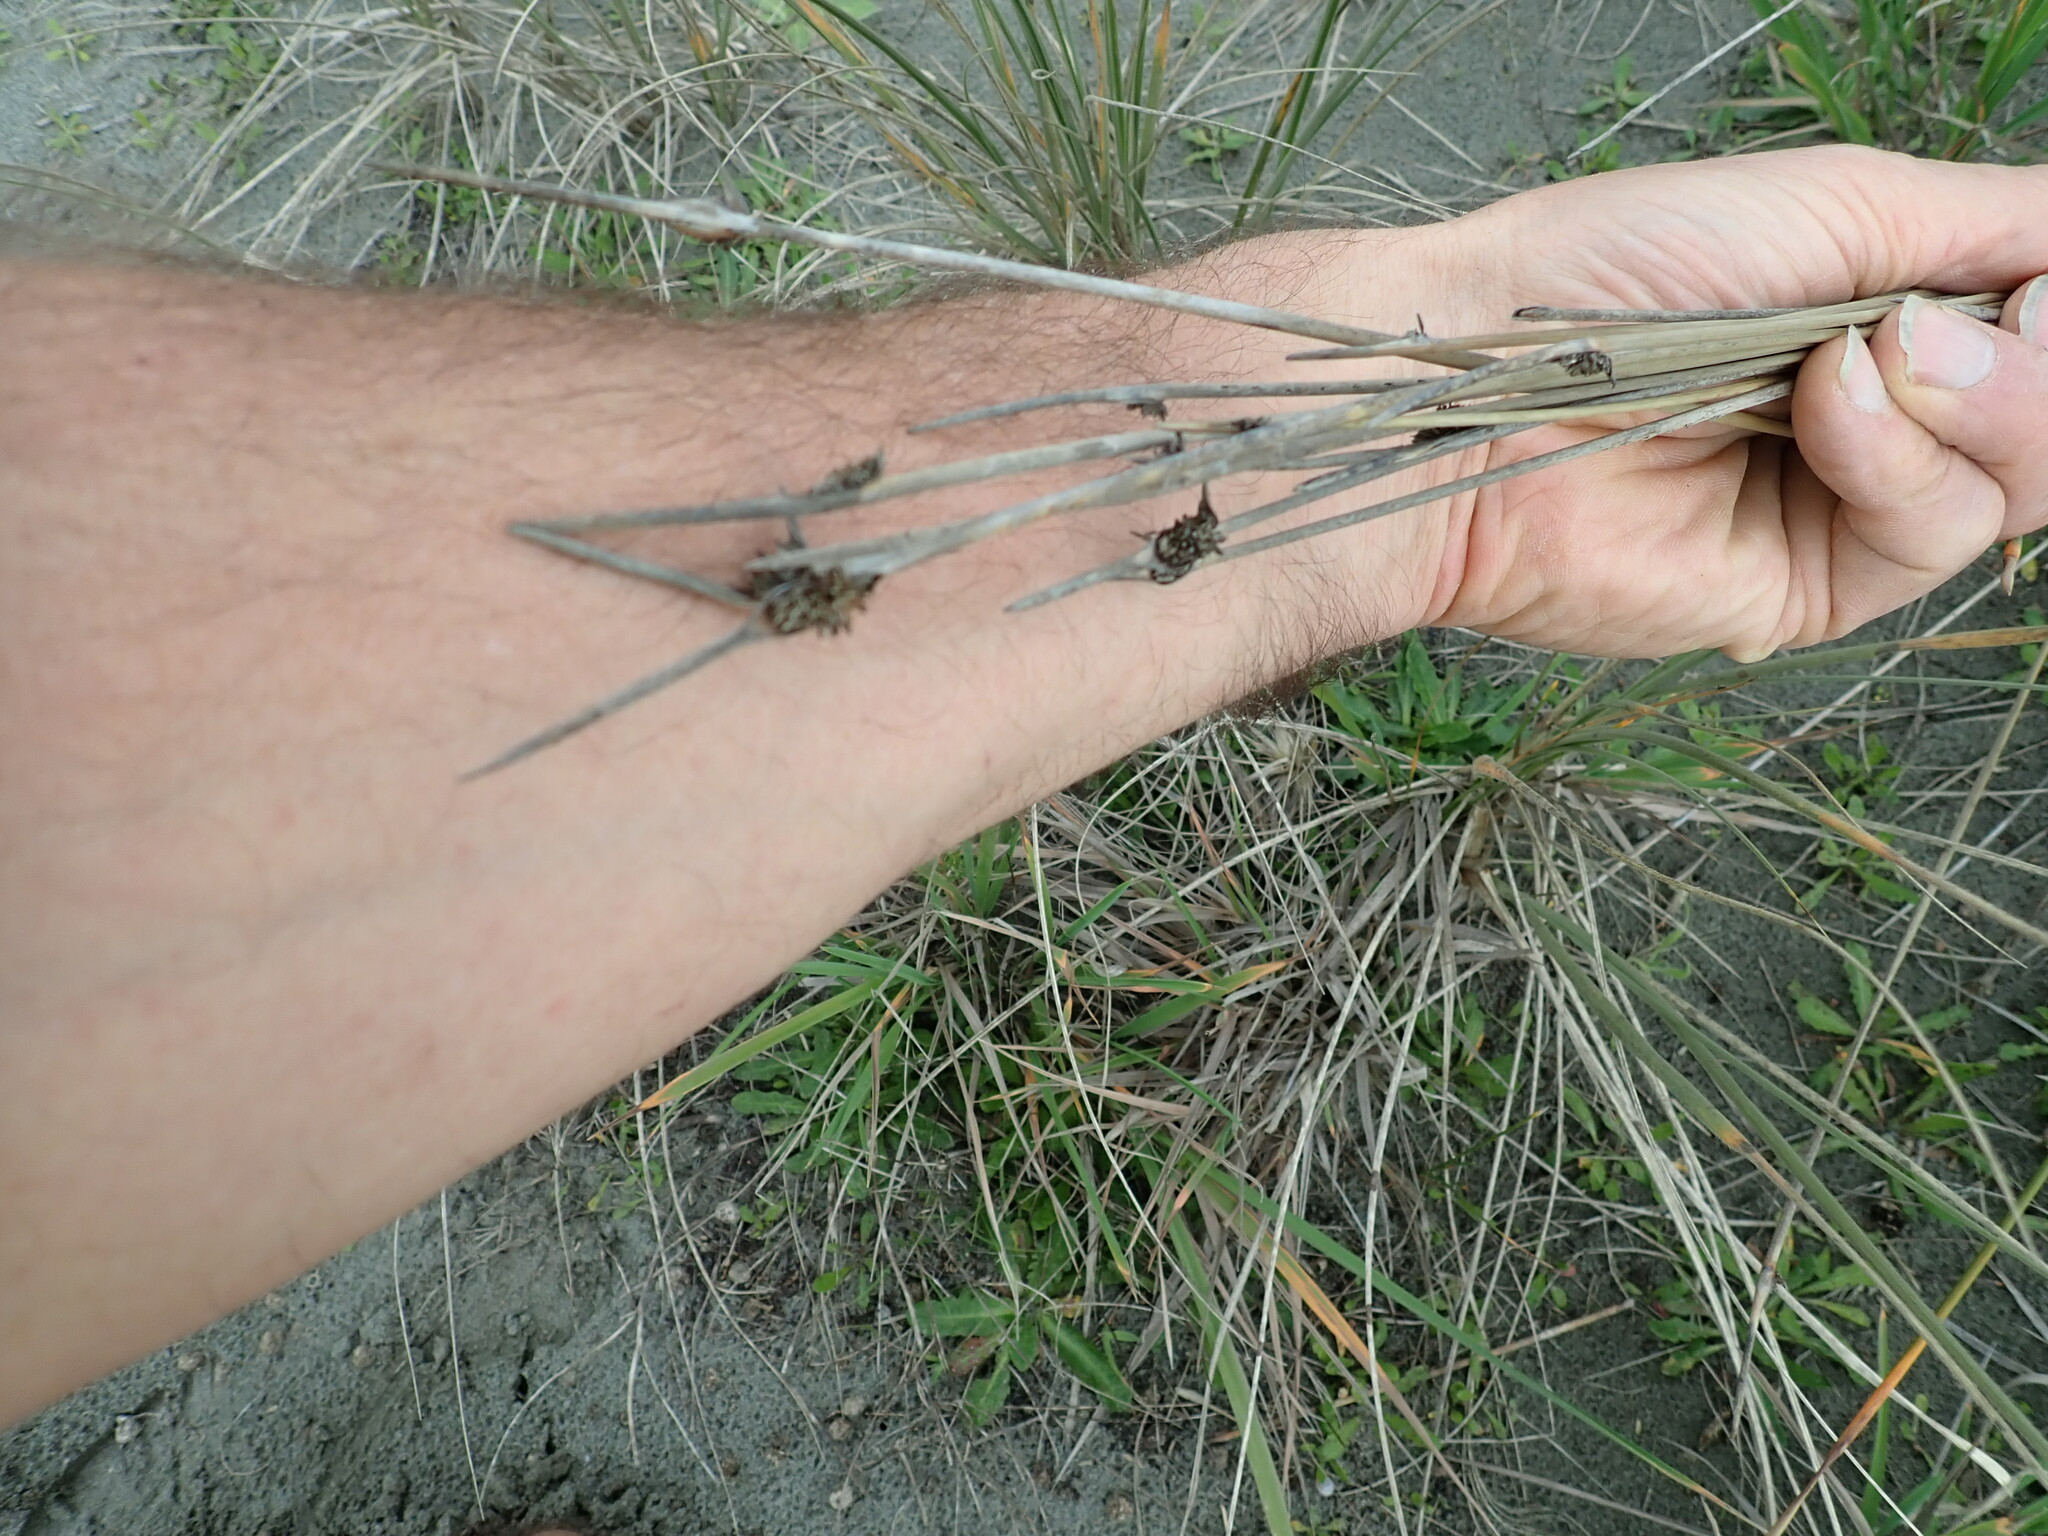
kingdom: Plantae
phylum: Tracheophyta
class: Liliopsida
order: Poales
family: Cyperaceae
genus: Ficinia
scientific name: Ficinia nodosa
